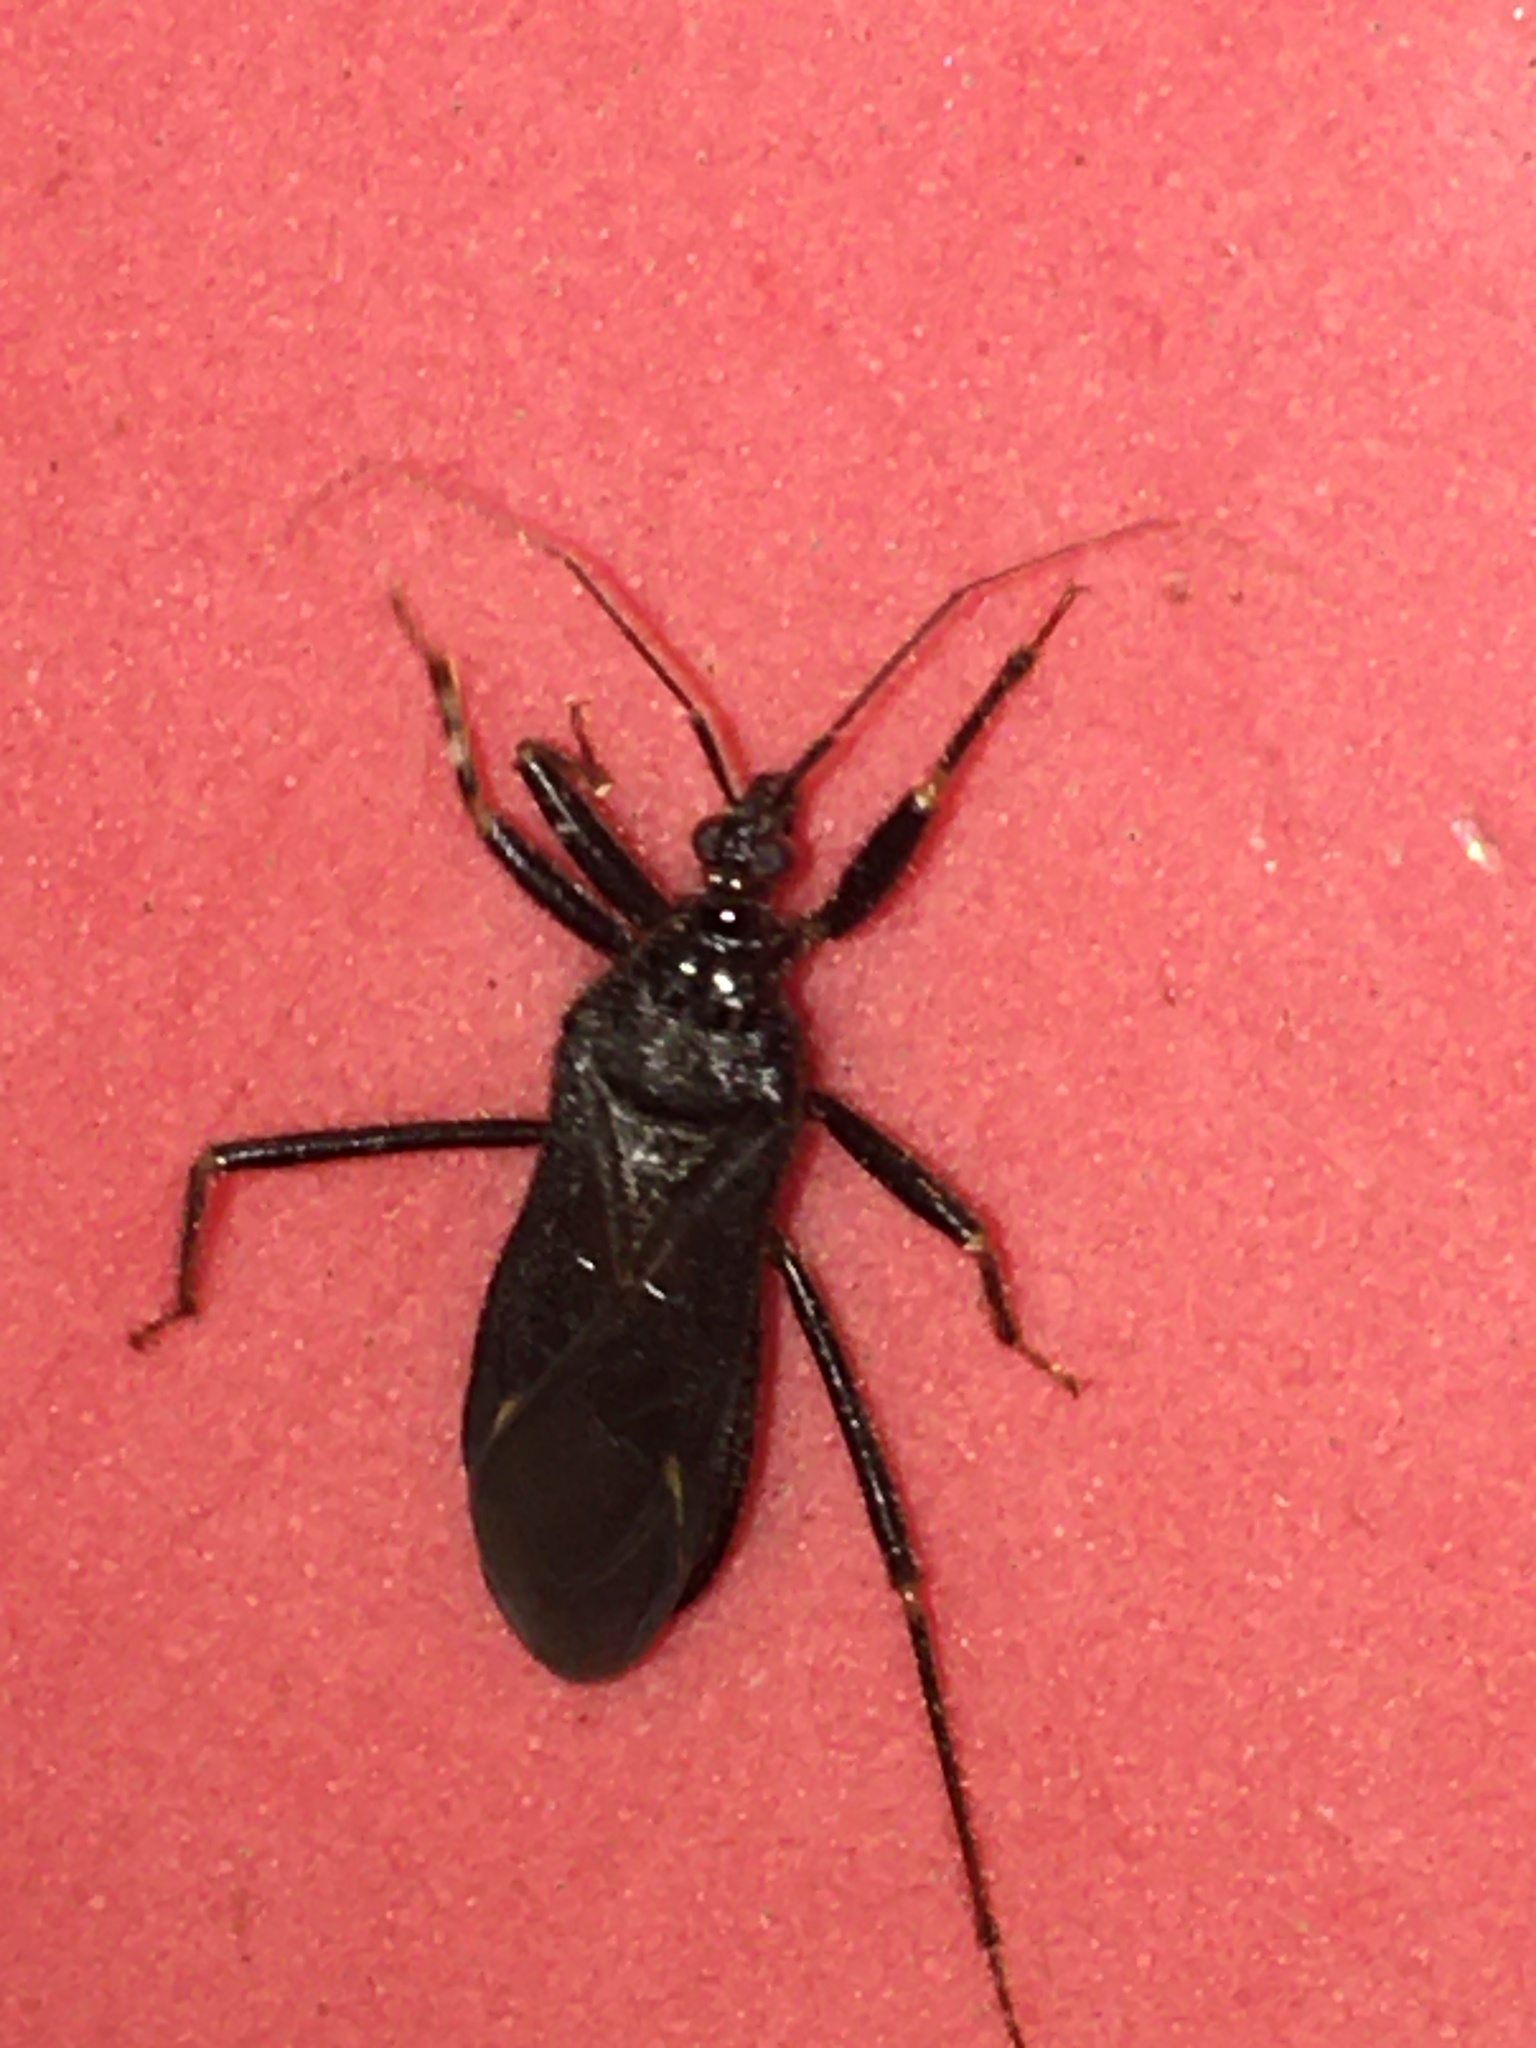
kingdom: Animalia
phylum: Arthropoda
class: Insecta
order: Hemiptera
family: Reduviidae
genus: Reduvius
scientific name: Reduvius personatus
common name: Masked hunter
